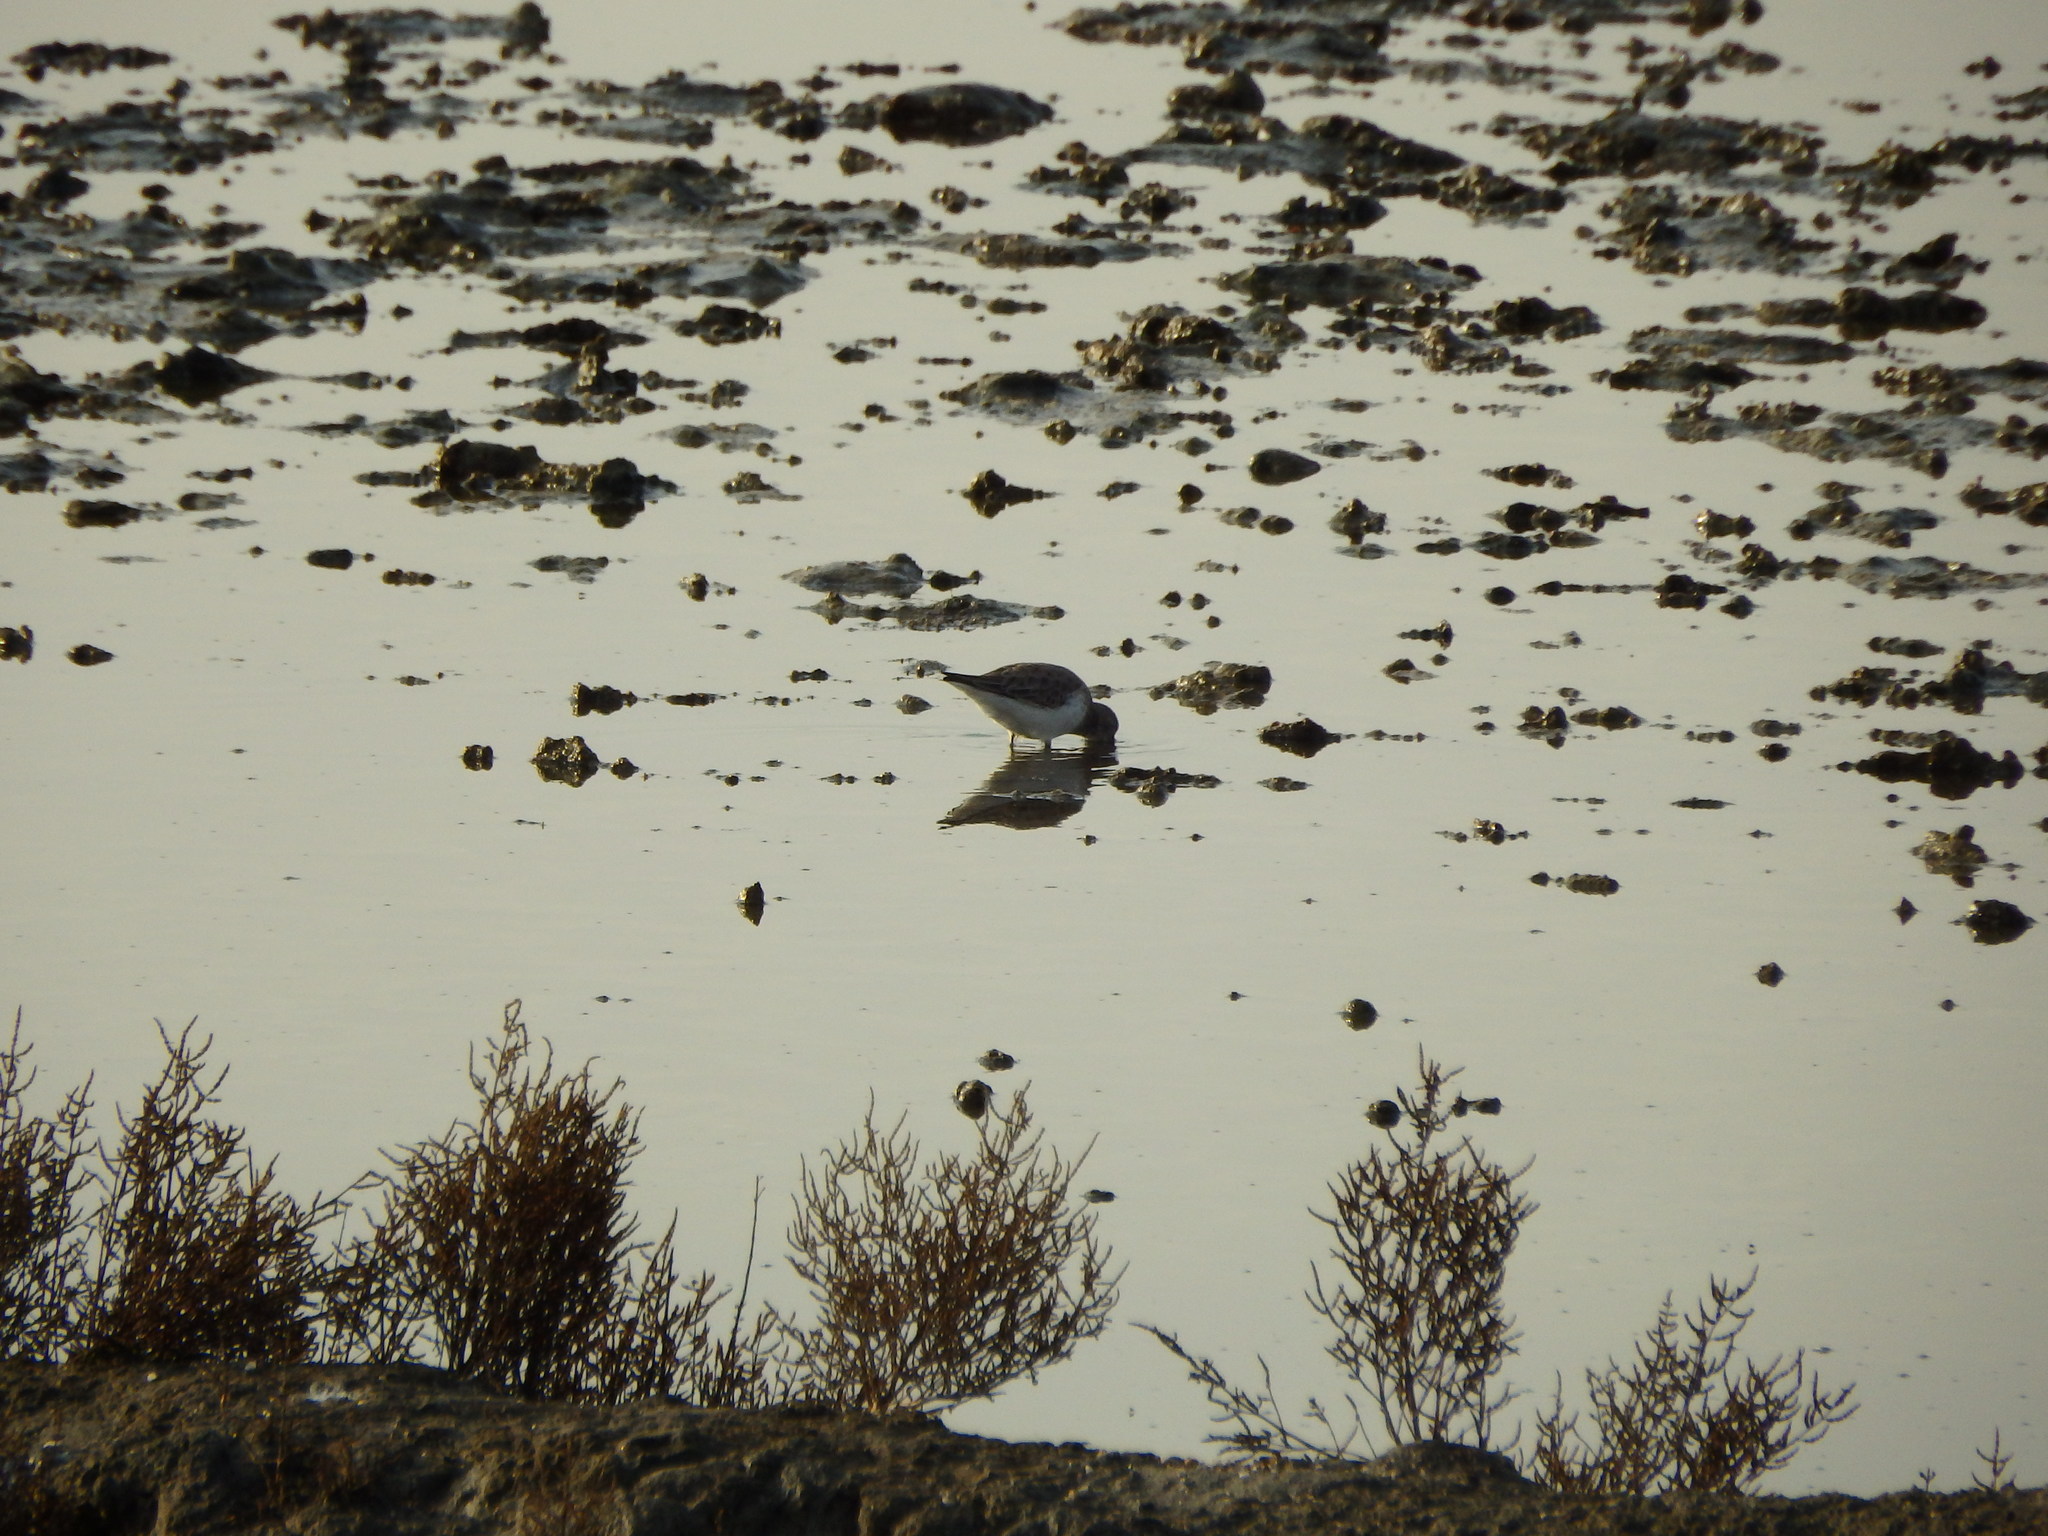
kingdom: Animalia
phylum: Chordata
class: Aves
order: Charadriiformes
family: Scolopacidae
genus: Calidris
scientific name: Calidris ferruginea
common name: Curlew sandpiper
